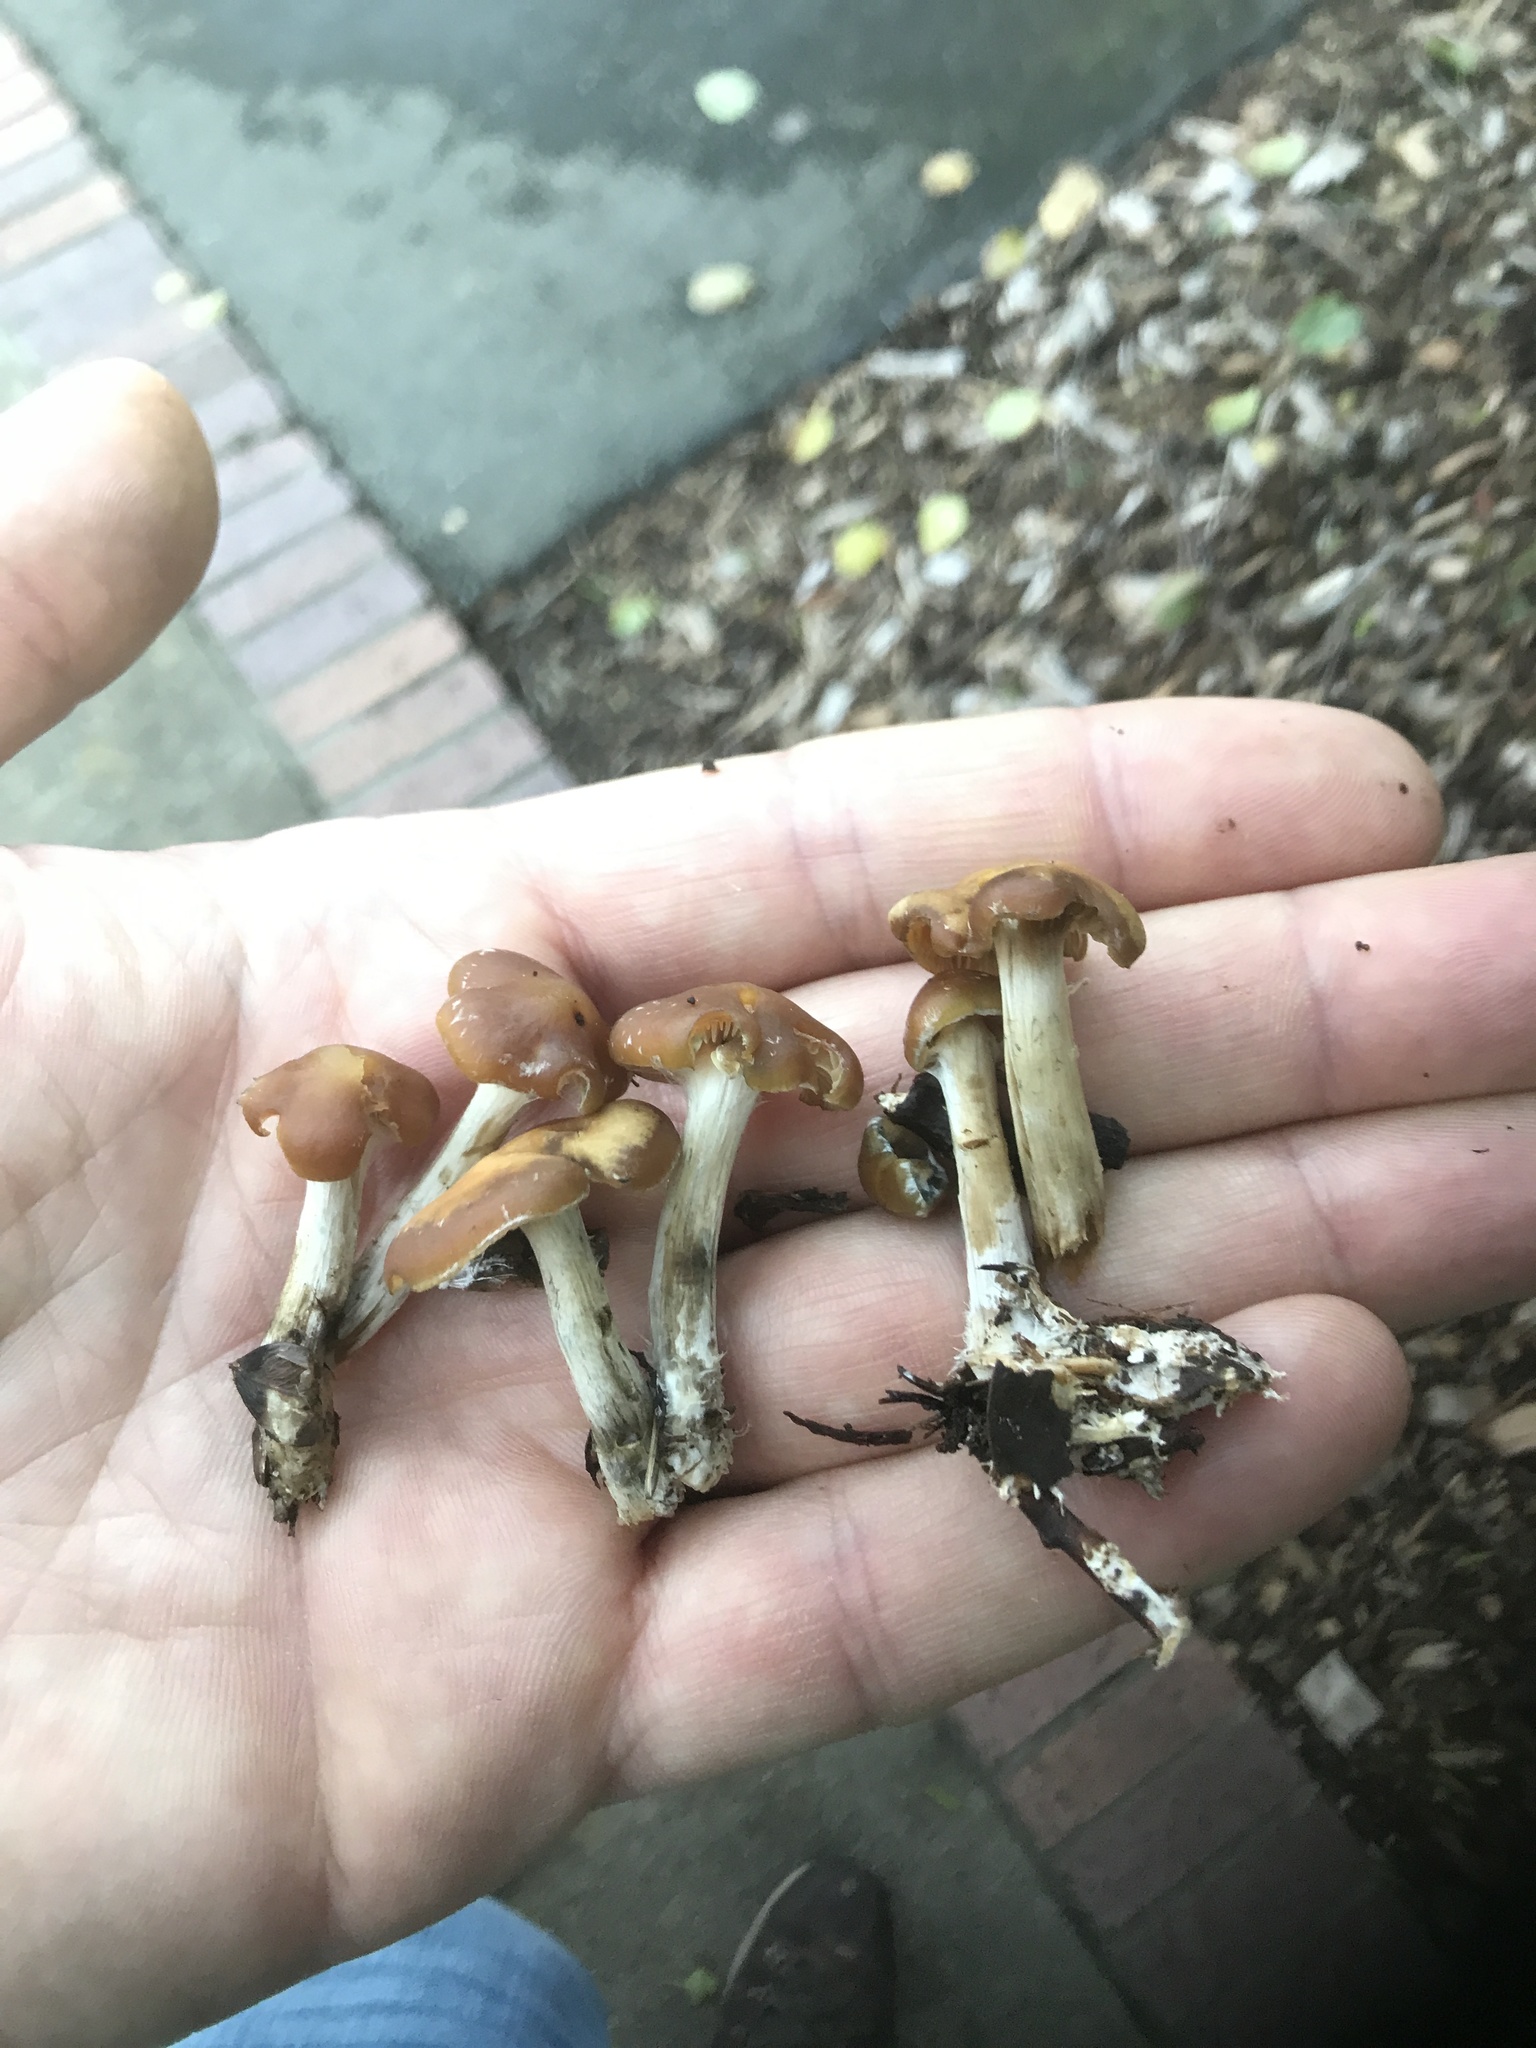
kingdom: Fungi
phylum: Basidiomycota
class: Agaricomycetes
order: Agaricales
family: Hymenogastraceae
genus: Psilocybe
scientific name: Psilocybe cyanescens
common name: Blueleg brownie
